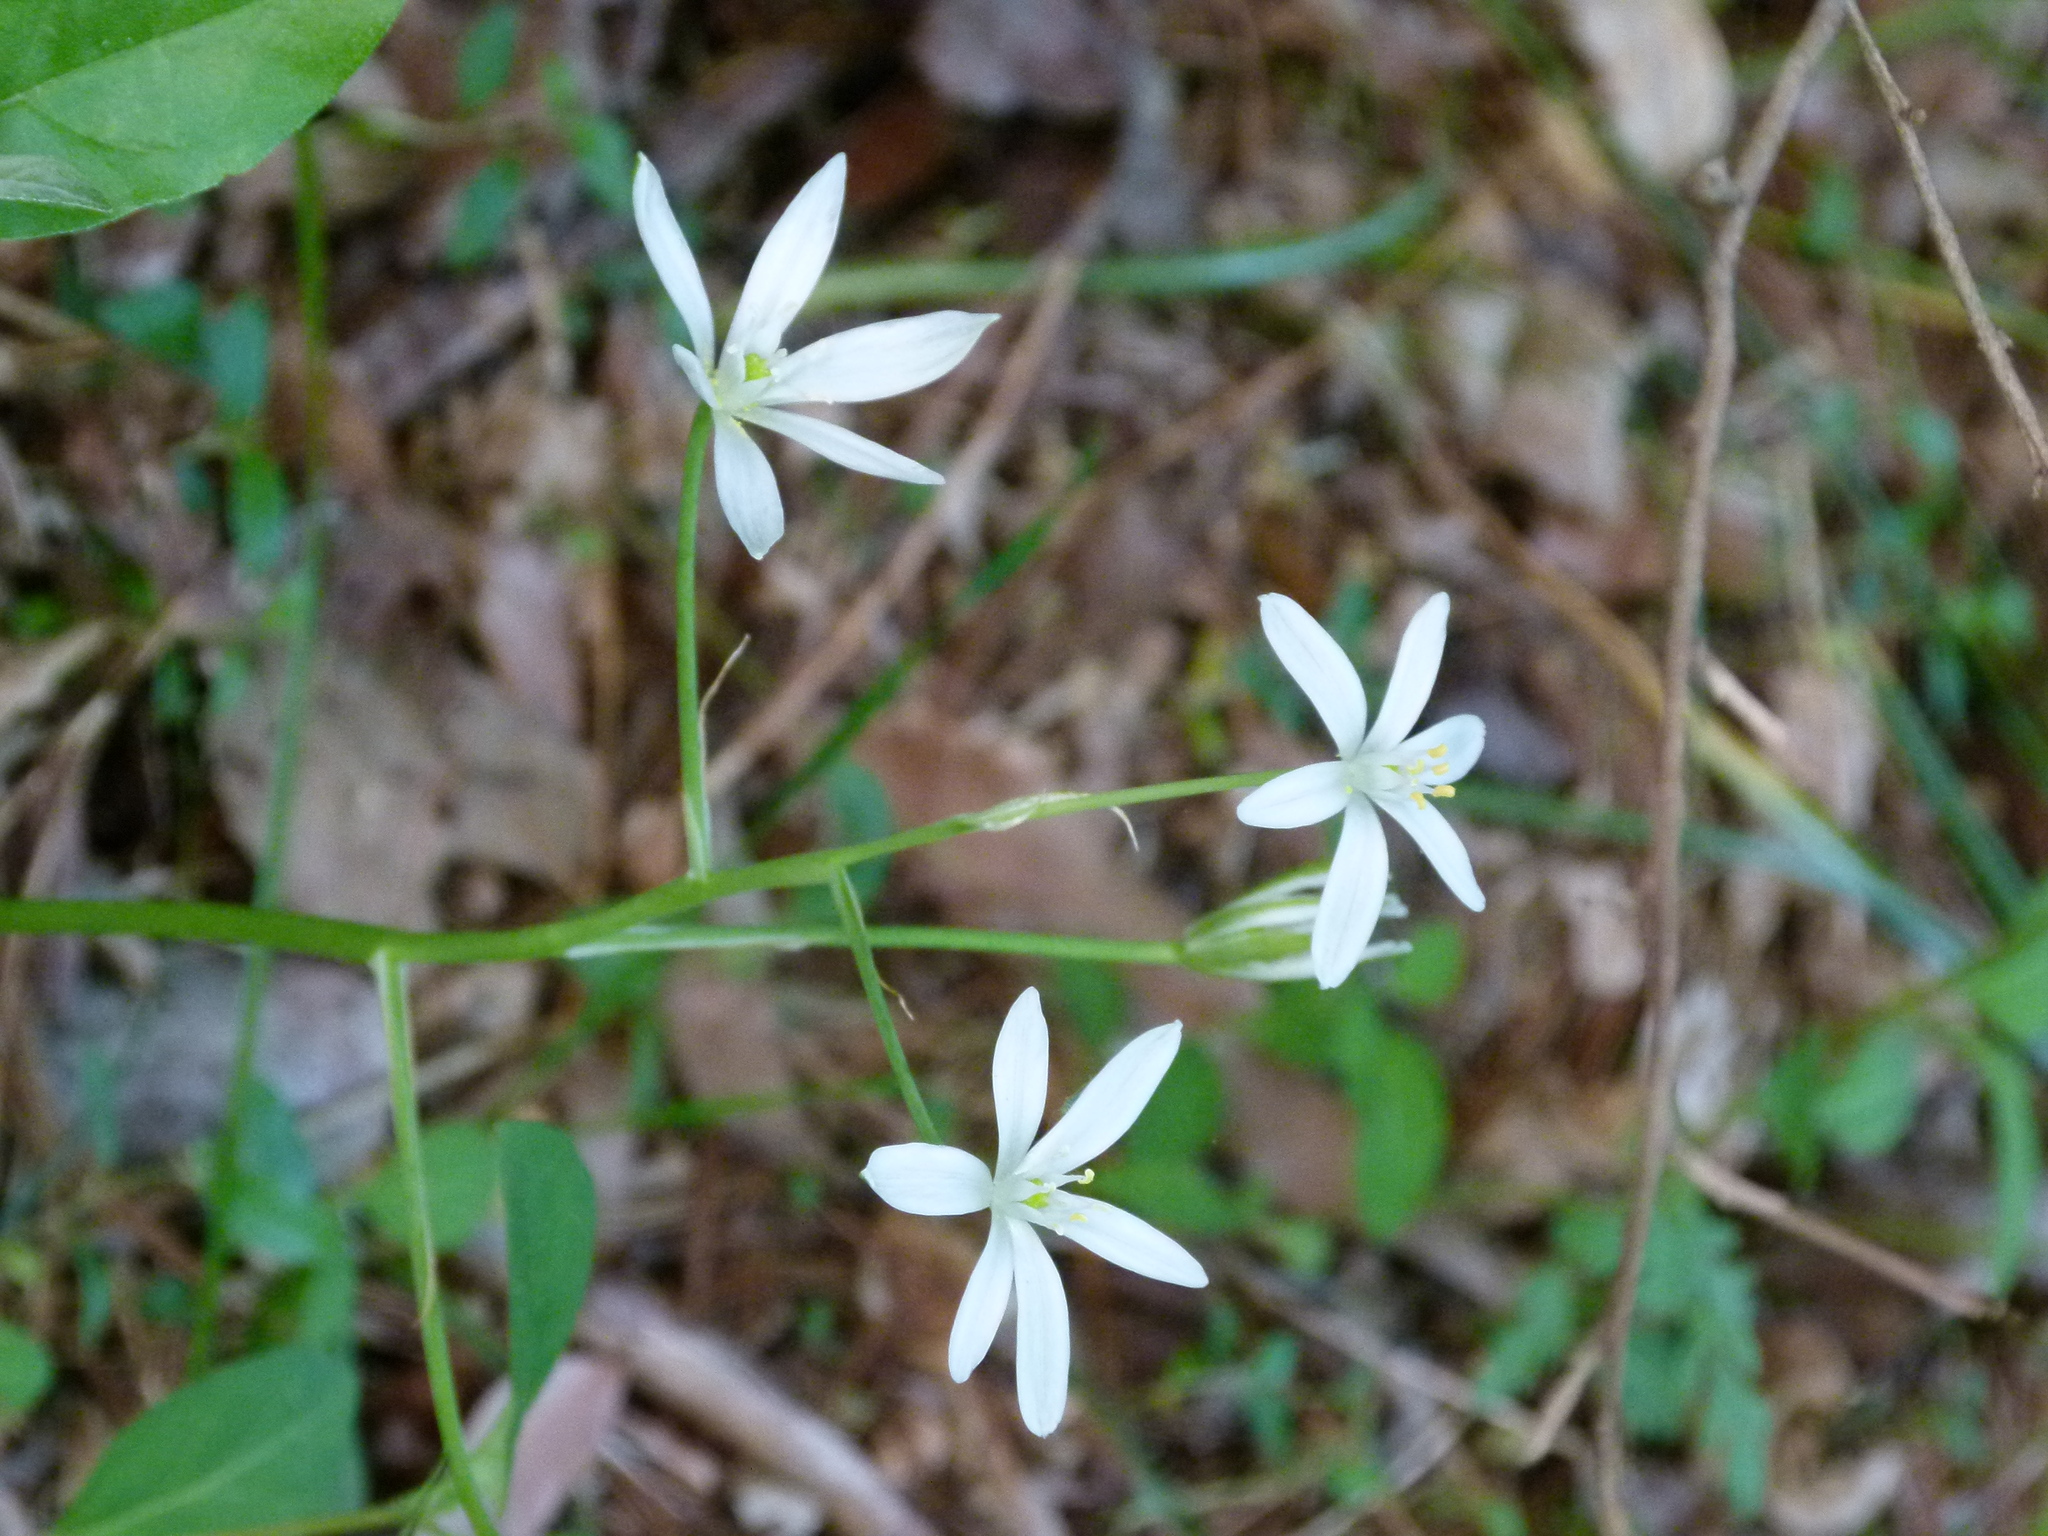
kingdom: Plantae
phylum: Tracheophyta
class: Liliopsida
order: Asparagales
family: Asparagaceae
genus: Ornithogalum
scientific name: Ornithogalum umbellatum
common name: Garden star-of-bethlehem
